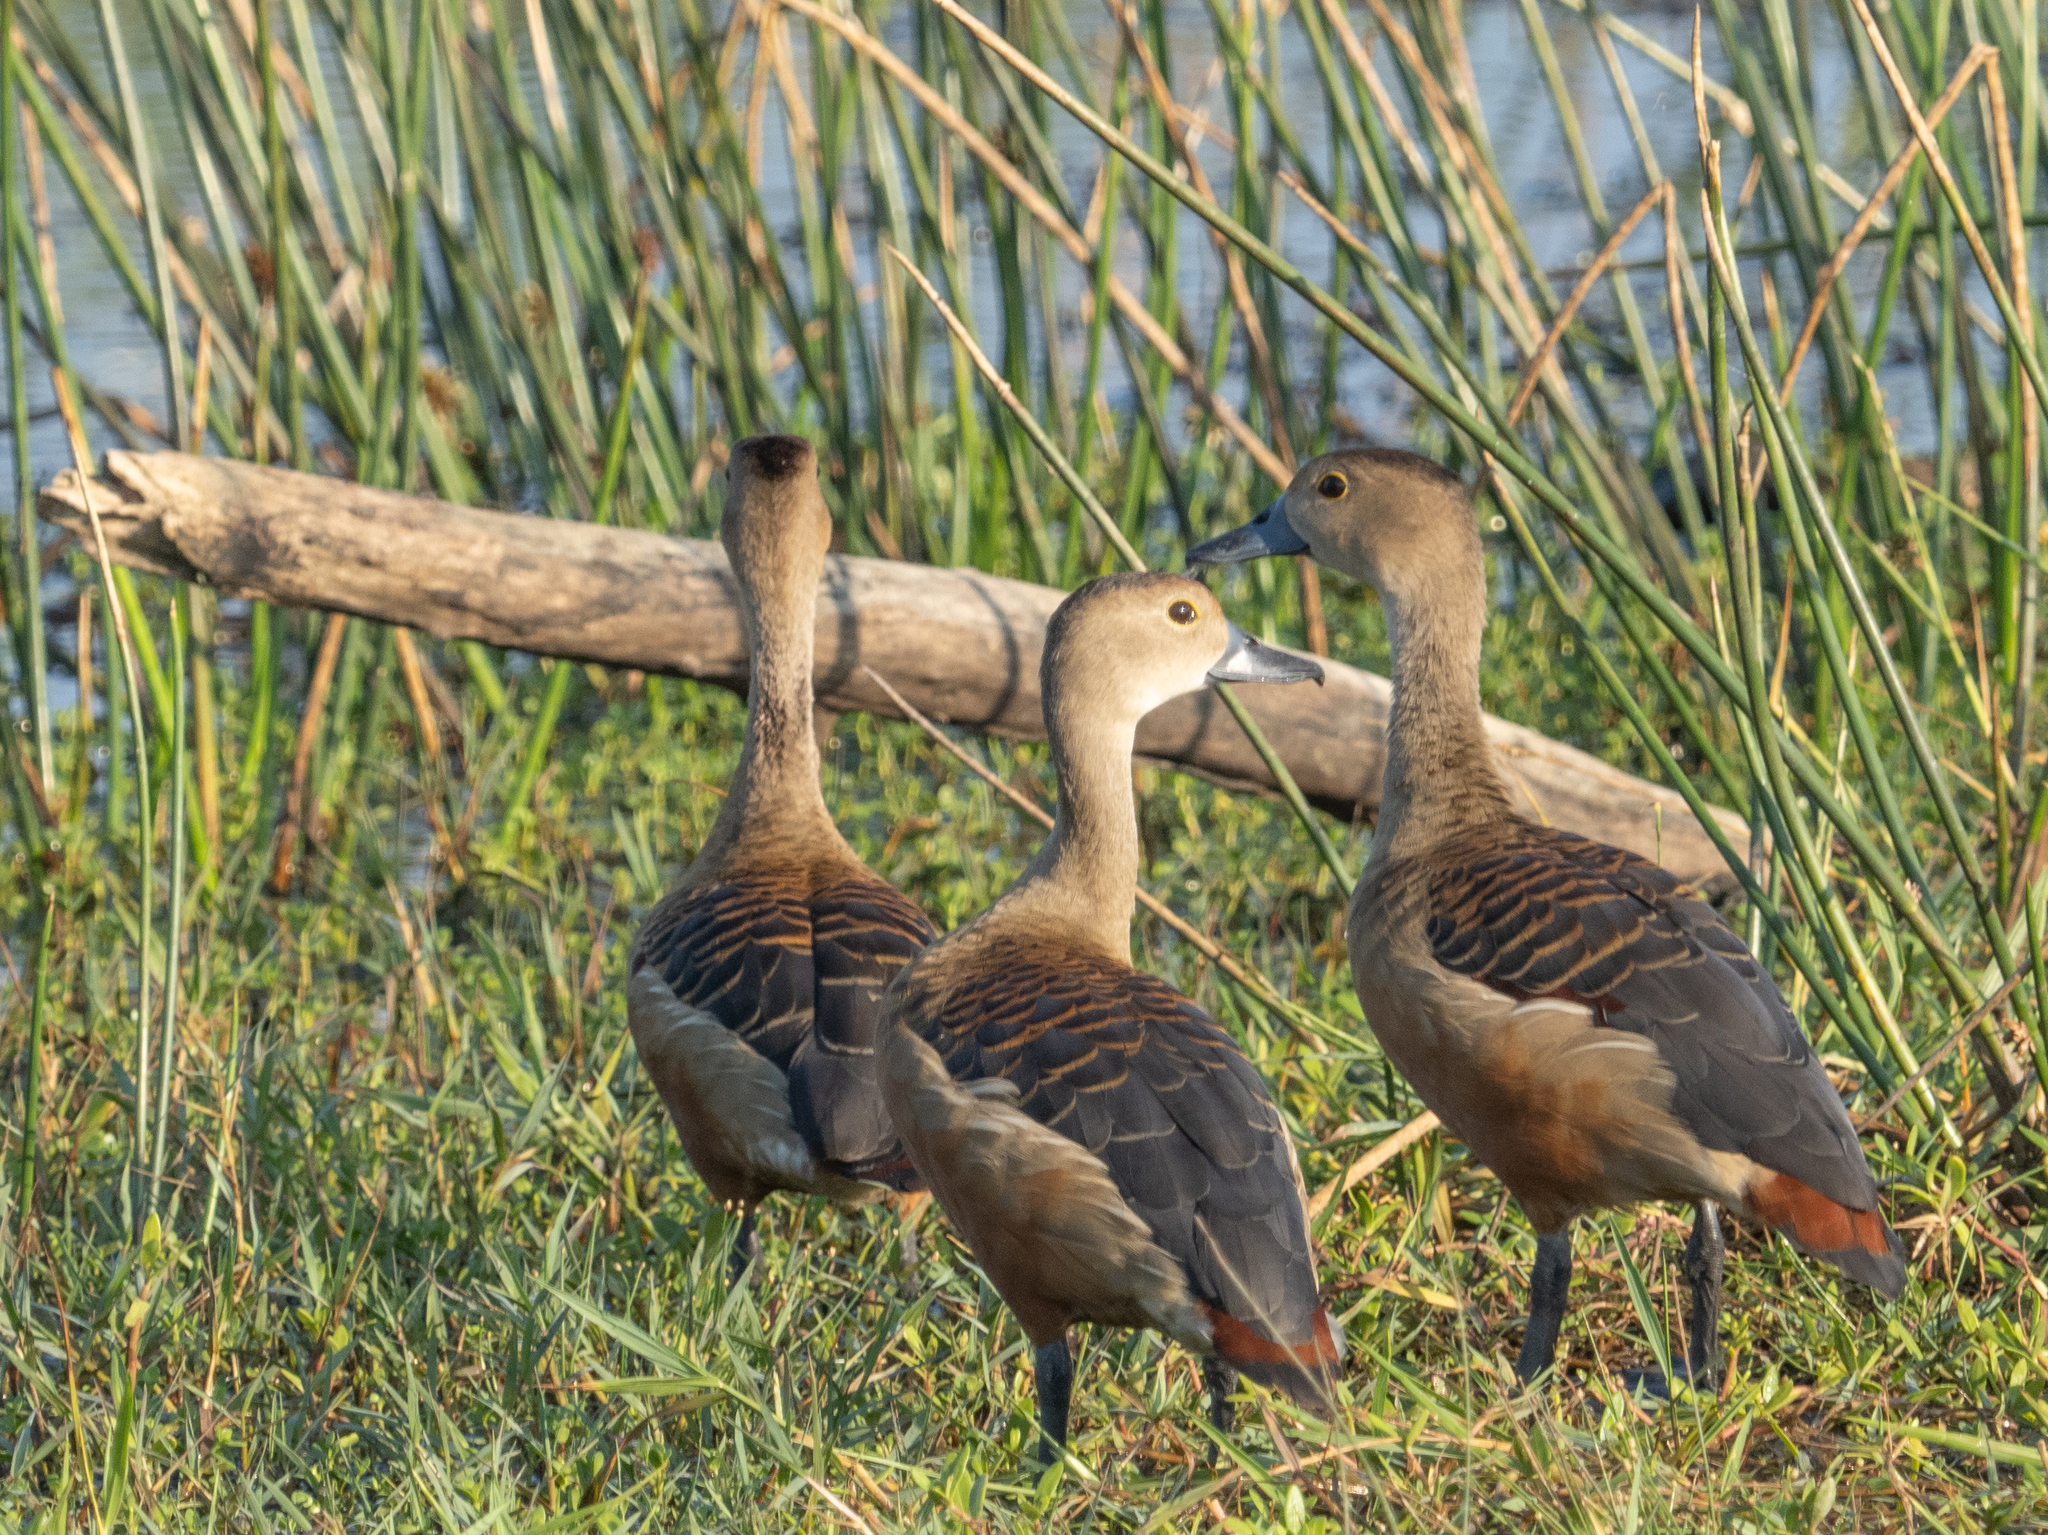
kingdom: Animalia
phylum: Chordata
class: Aves
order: Anseriformes
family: Anatidae
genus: Dendrocygna
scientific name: Dendrocygna javanica
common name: Lesser whistling-duck
